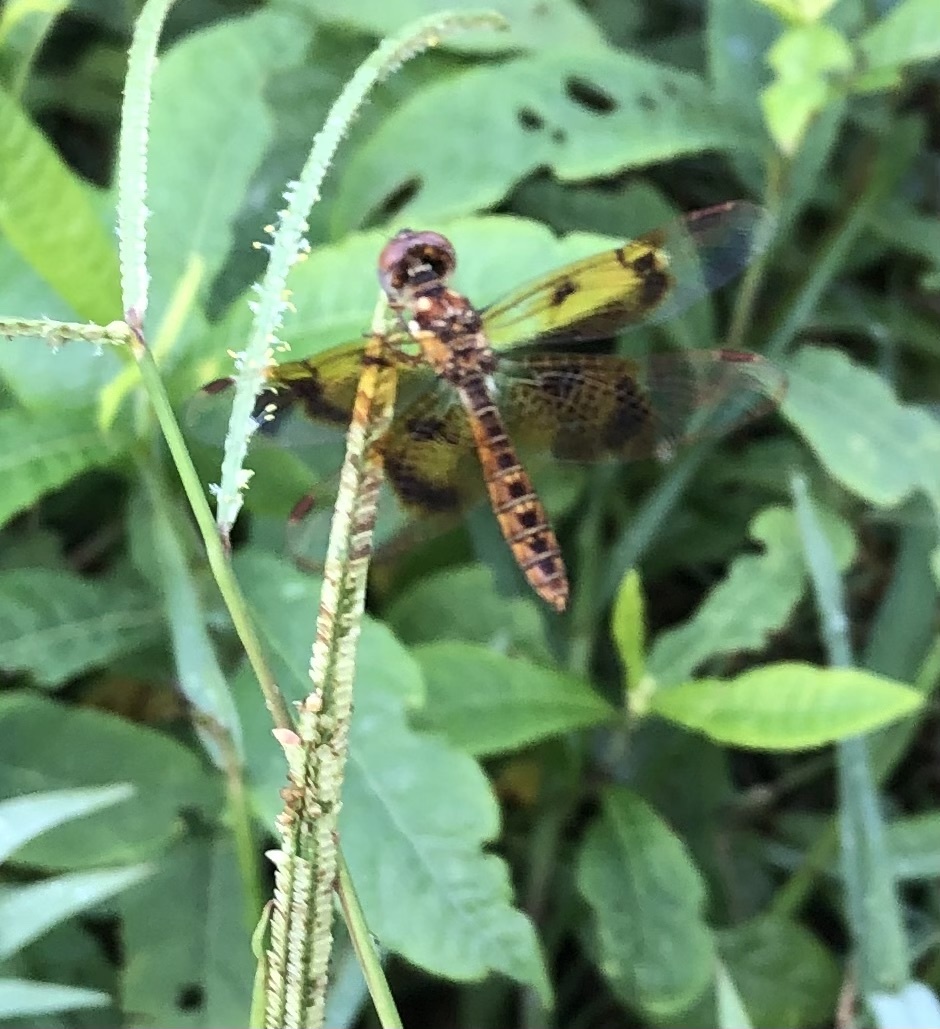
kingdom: Animalia
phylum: Arthropoda
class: Insecta
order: Odonata
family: Libellulidae
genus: Perithemis
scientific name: Perithemis tenera
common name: Eastern amberwing
